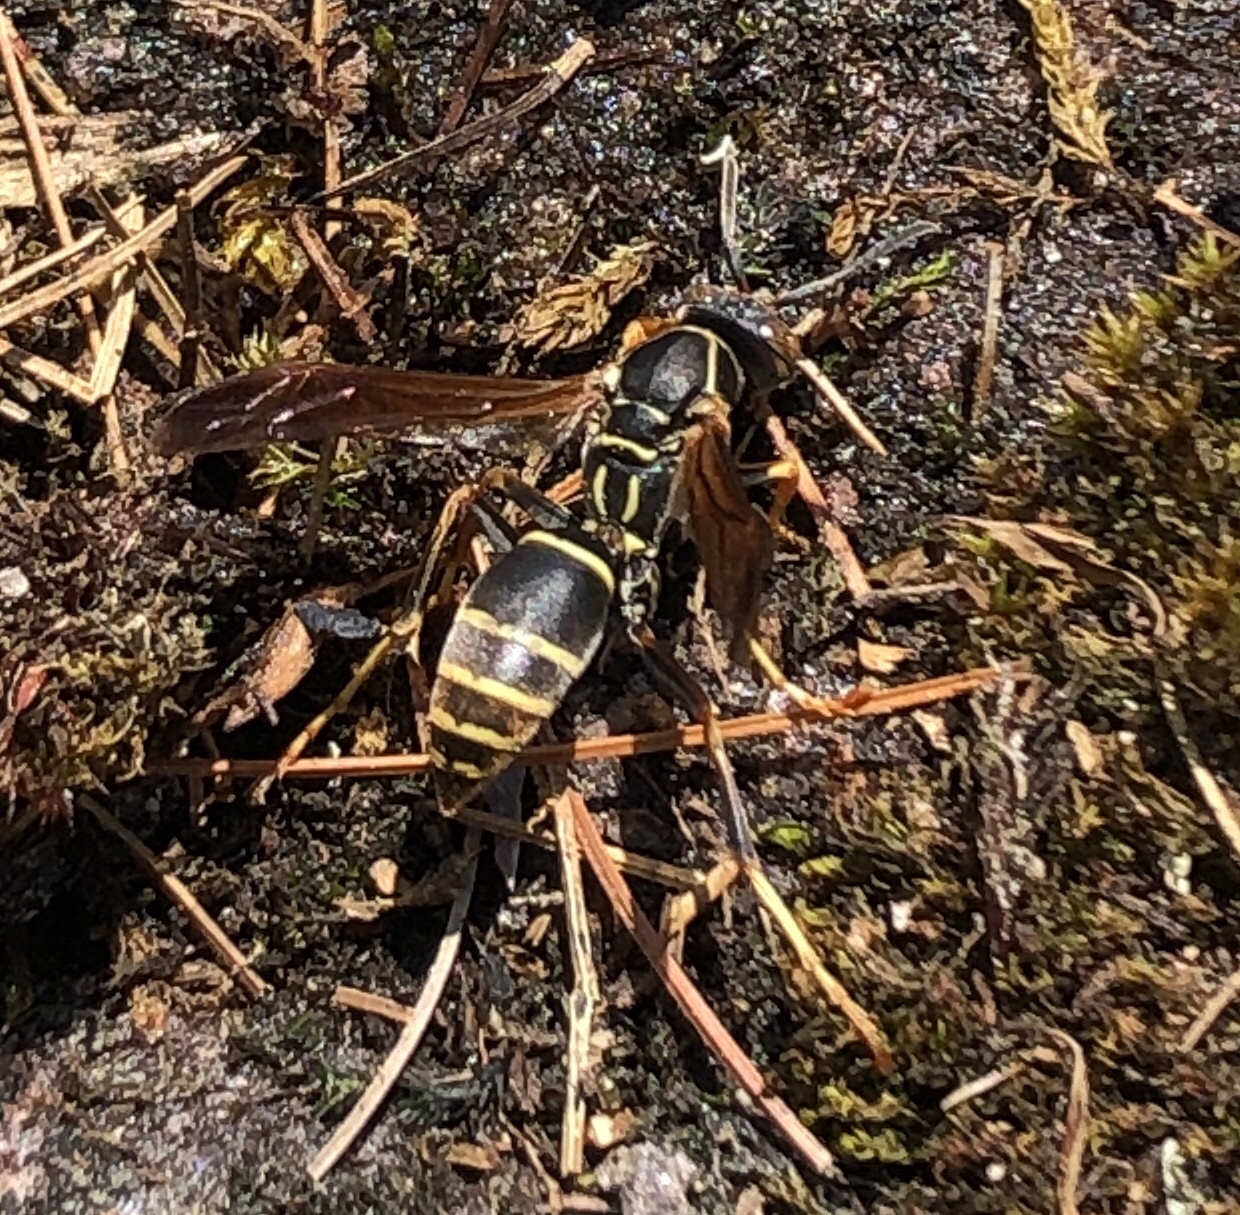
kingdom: Animalia
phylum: Arthropoda
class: Insecta
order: Hymenoptera
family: Eumenidae
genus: Polistes
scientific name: Polistes fuscatus
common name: Dark paper wasp
